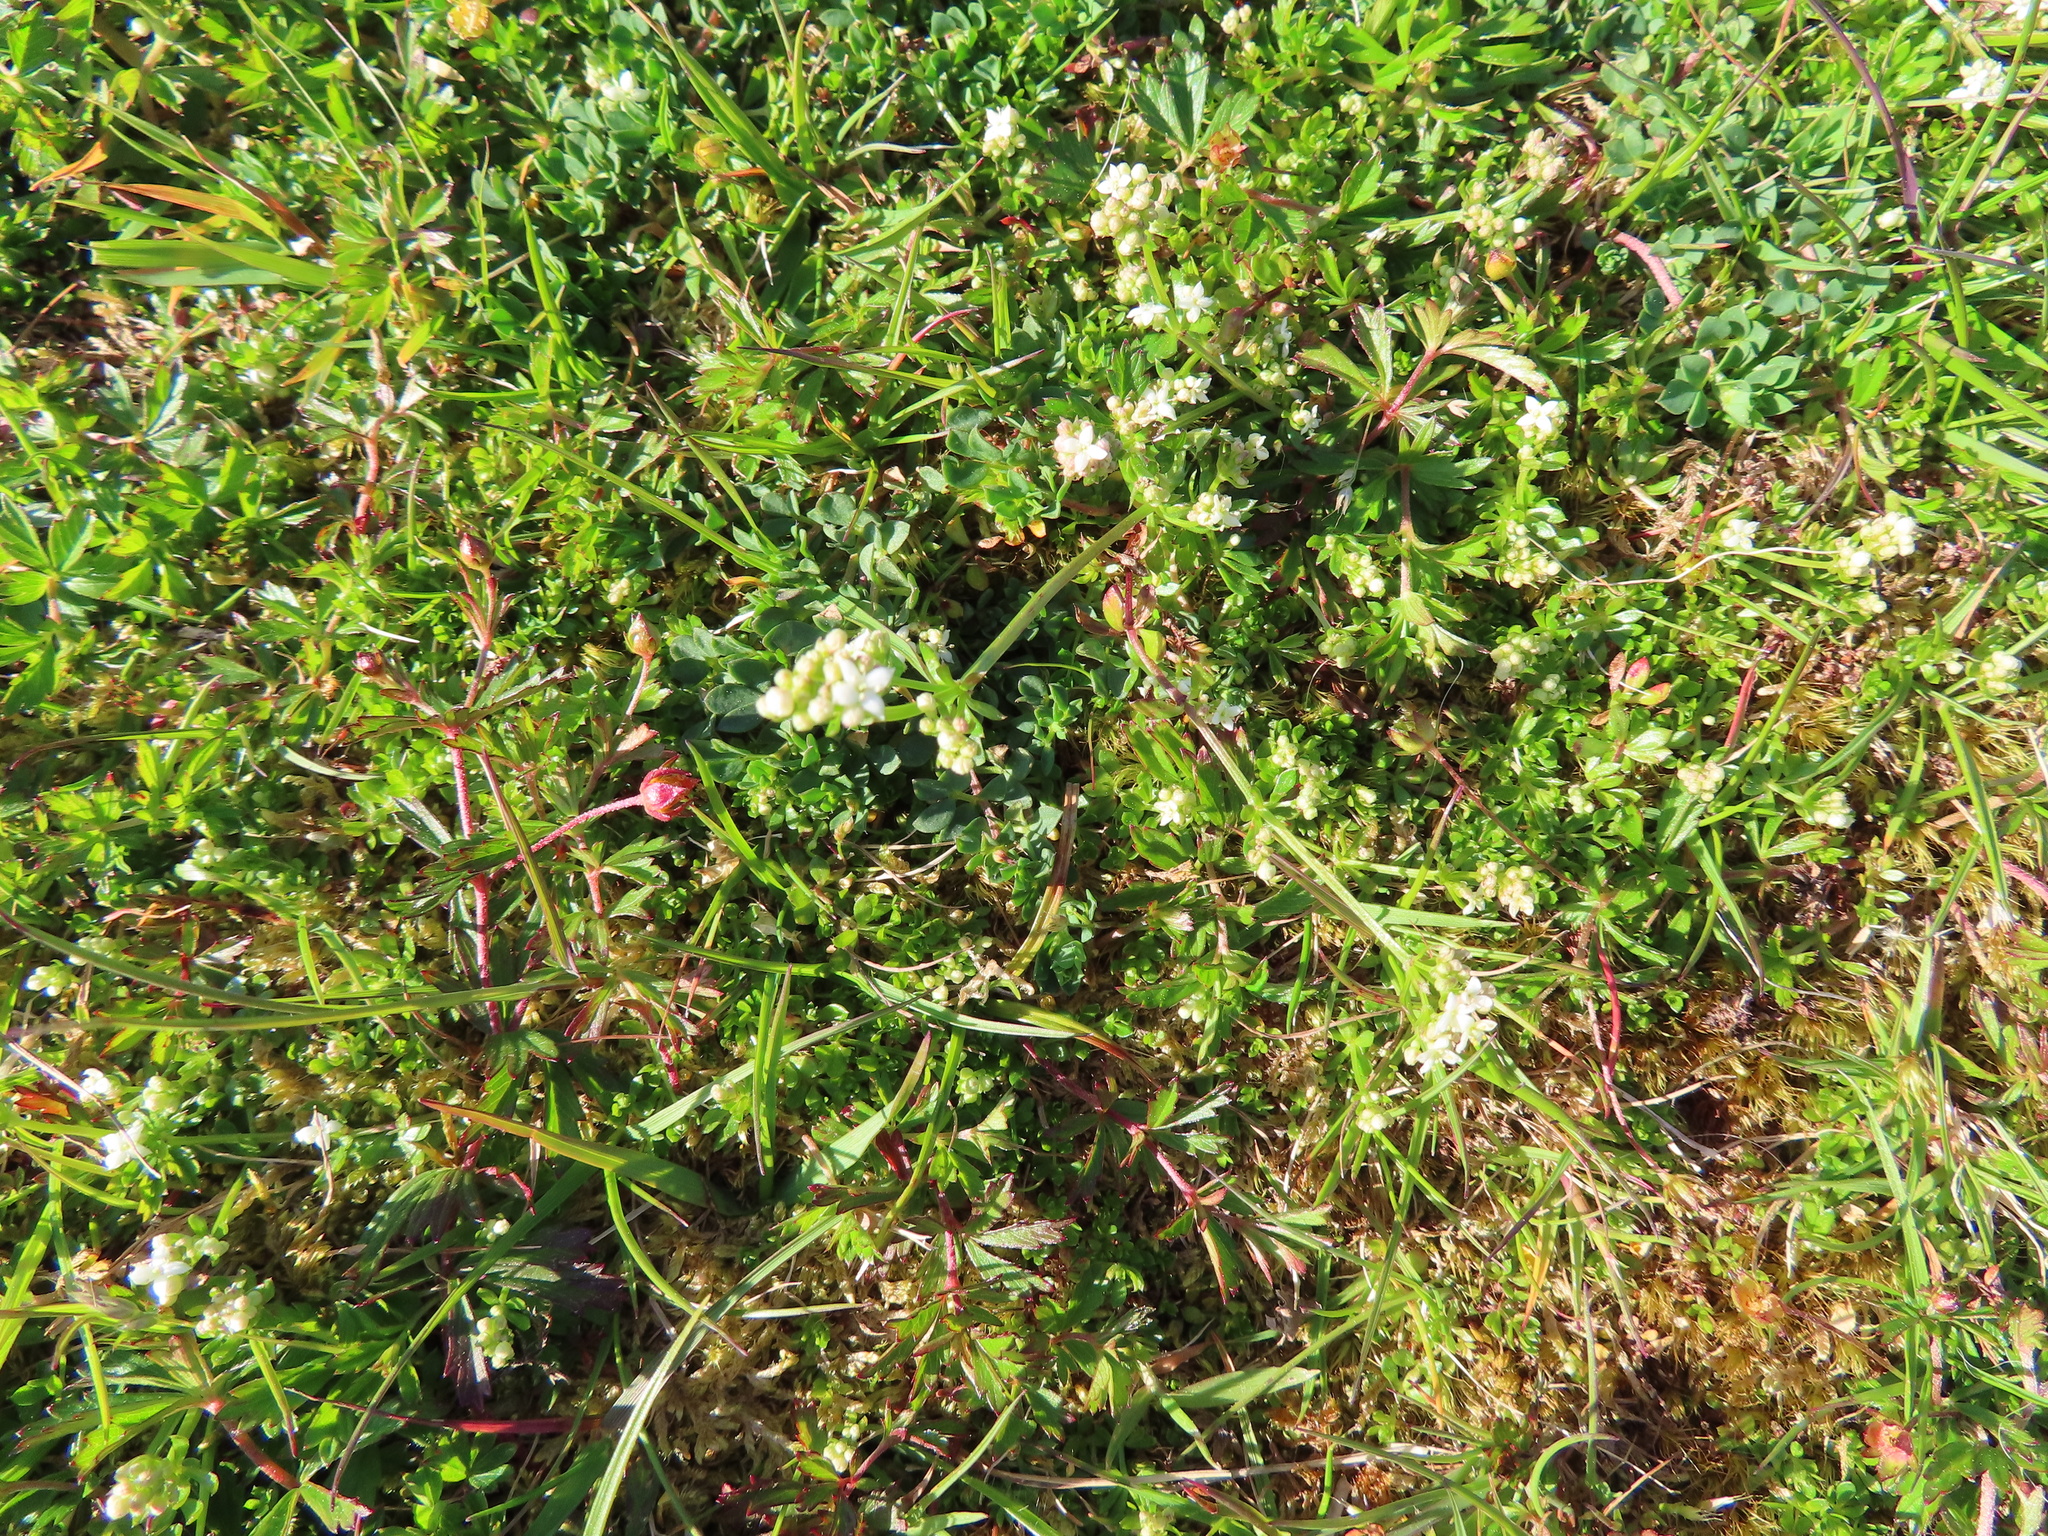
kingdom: Plantae
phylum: Tracheophyta
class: Magnoliopsida
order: Gentianales
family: Rubiaceae
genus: Galium
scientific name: Galium saxatile
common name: Heath bedstraw
